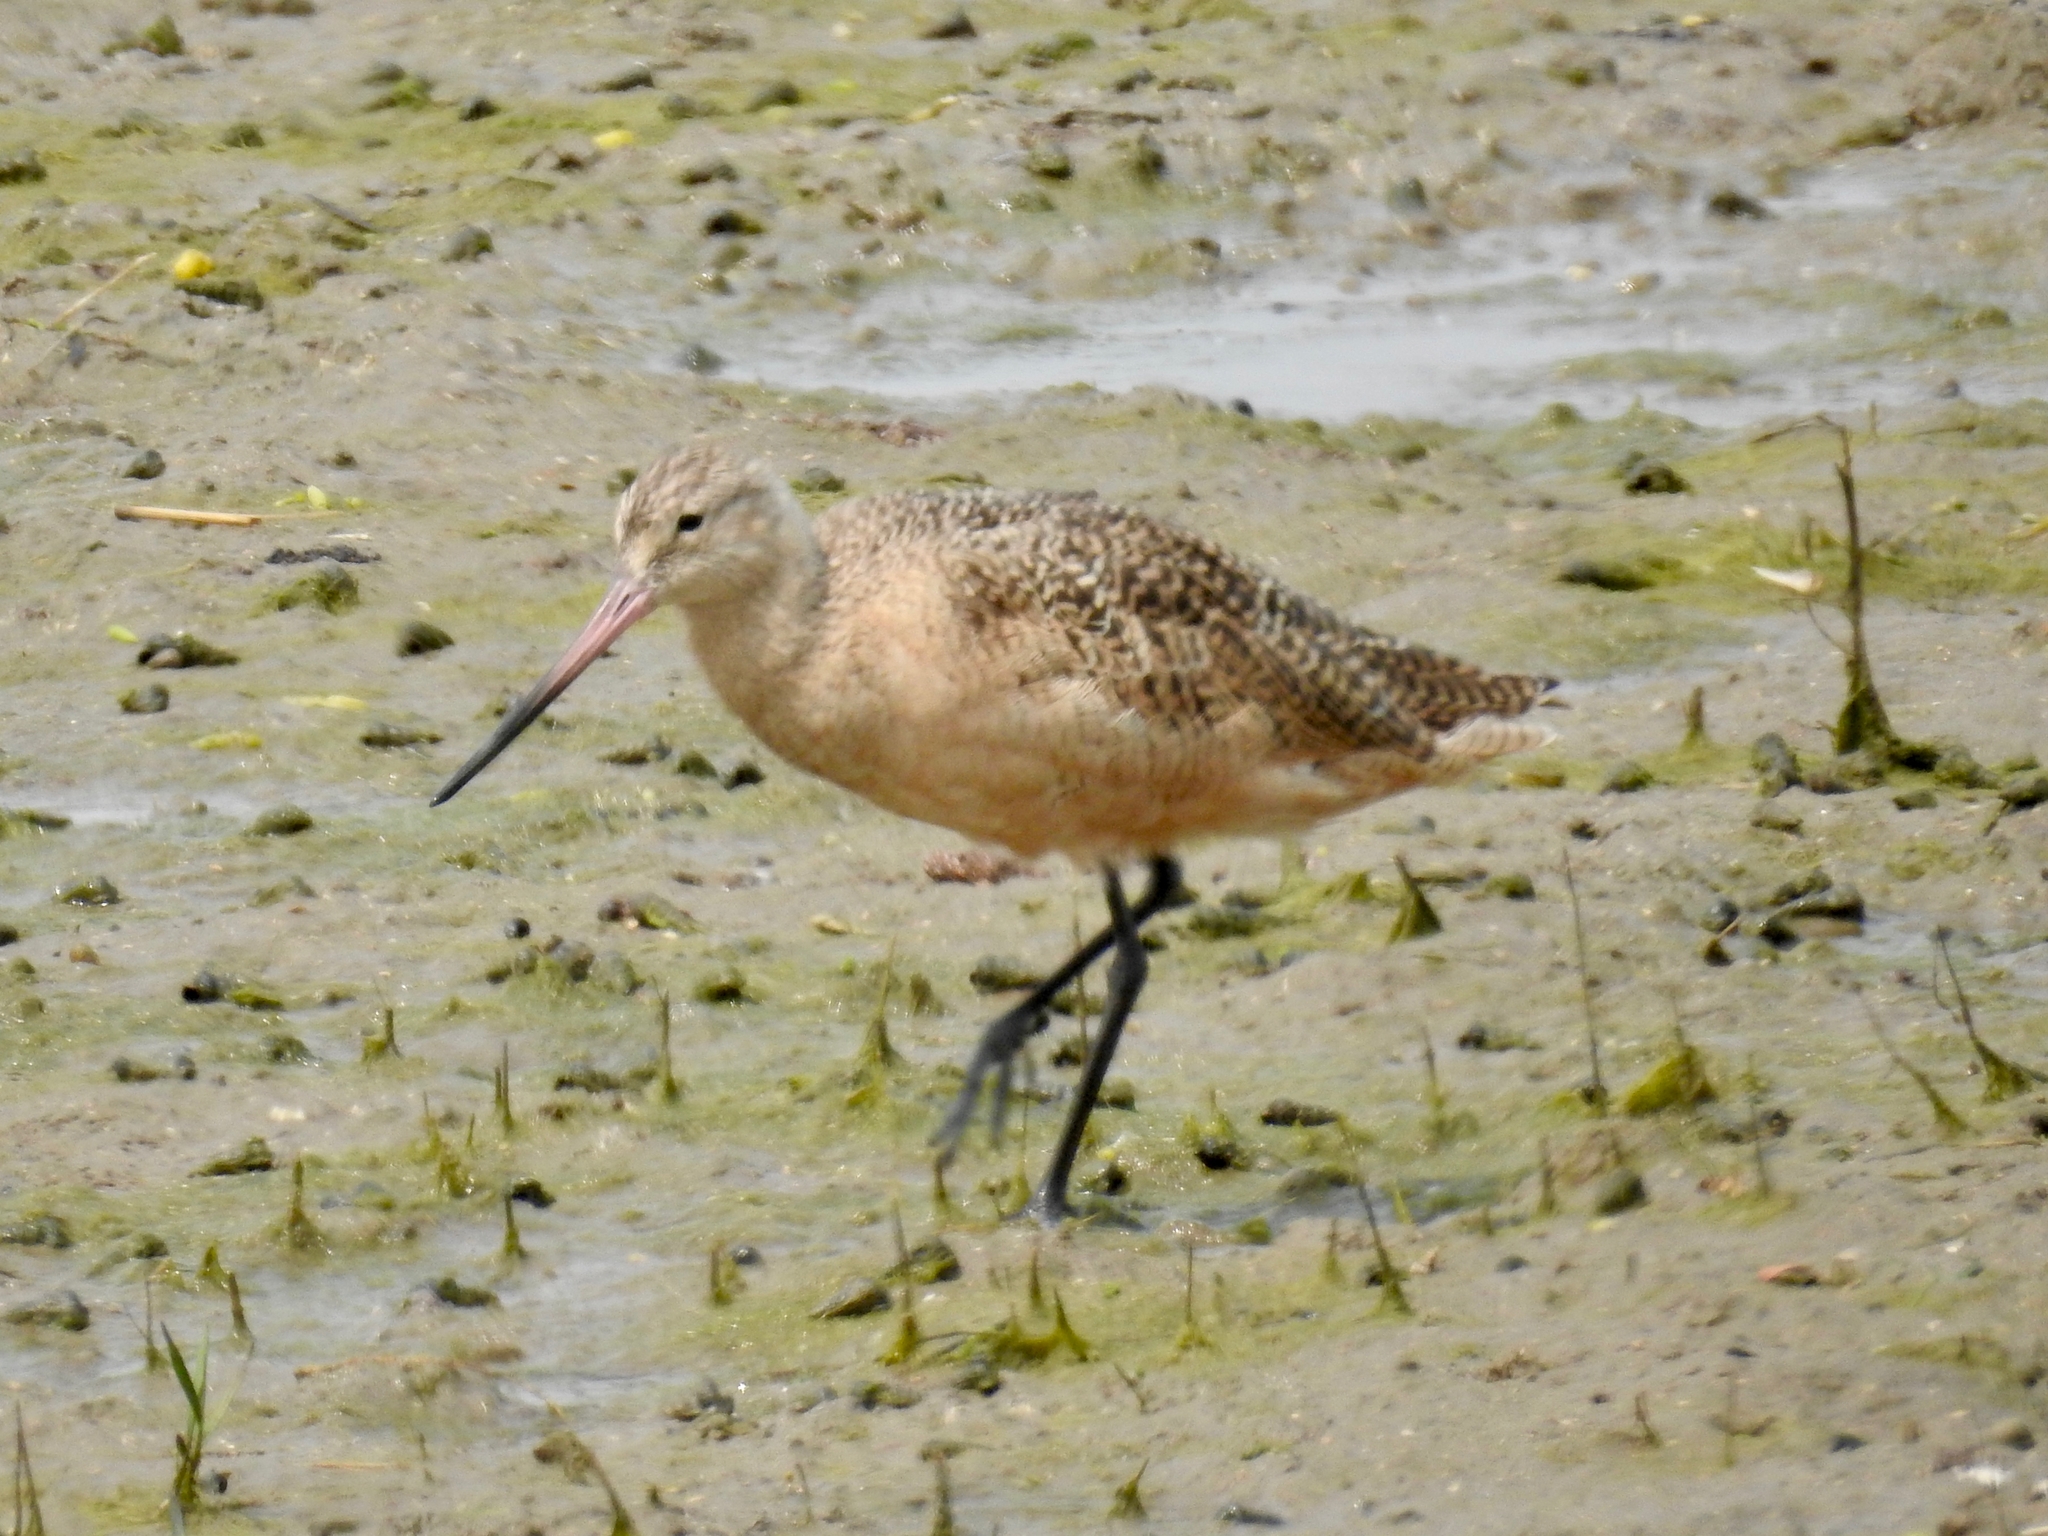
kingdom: Animalia
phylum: Chordata
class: Aves
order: Charadriiformes
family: Scolopacidae
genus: Limosa
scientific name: Limosa fedoa
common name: Marbled godwit
